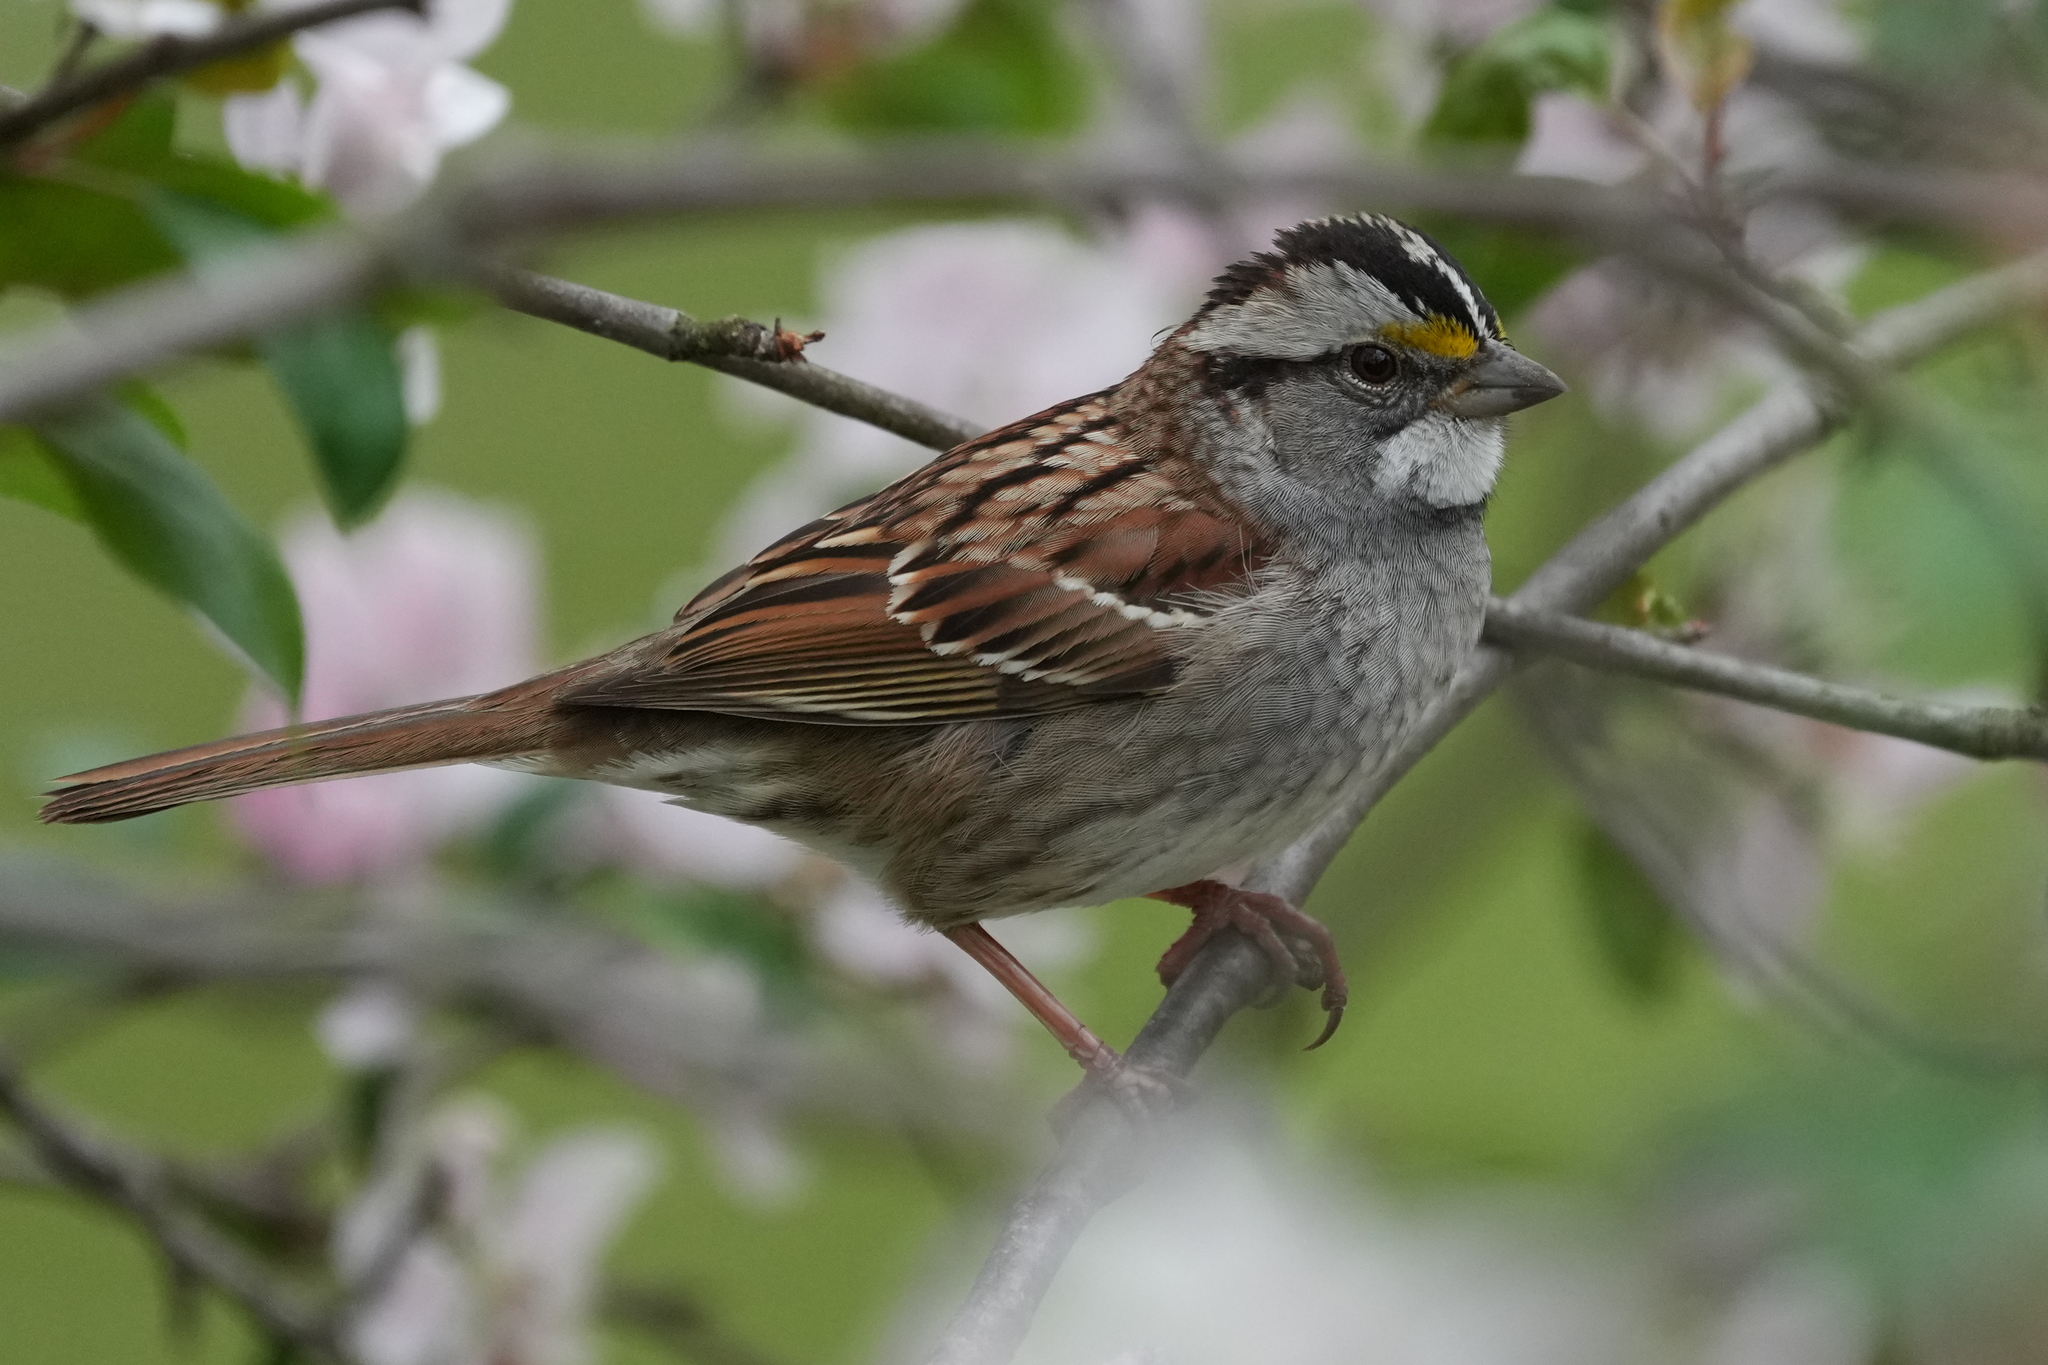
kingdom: Animalia
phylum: Chordata
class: Aves
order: Passeriformes
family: Passerellidae
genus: Zonotrichia
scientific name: Zonotrichia albicollis
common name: White-throated sparrow
